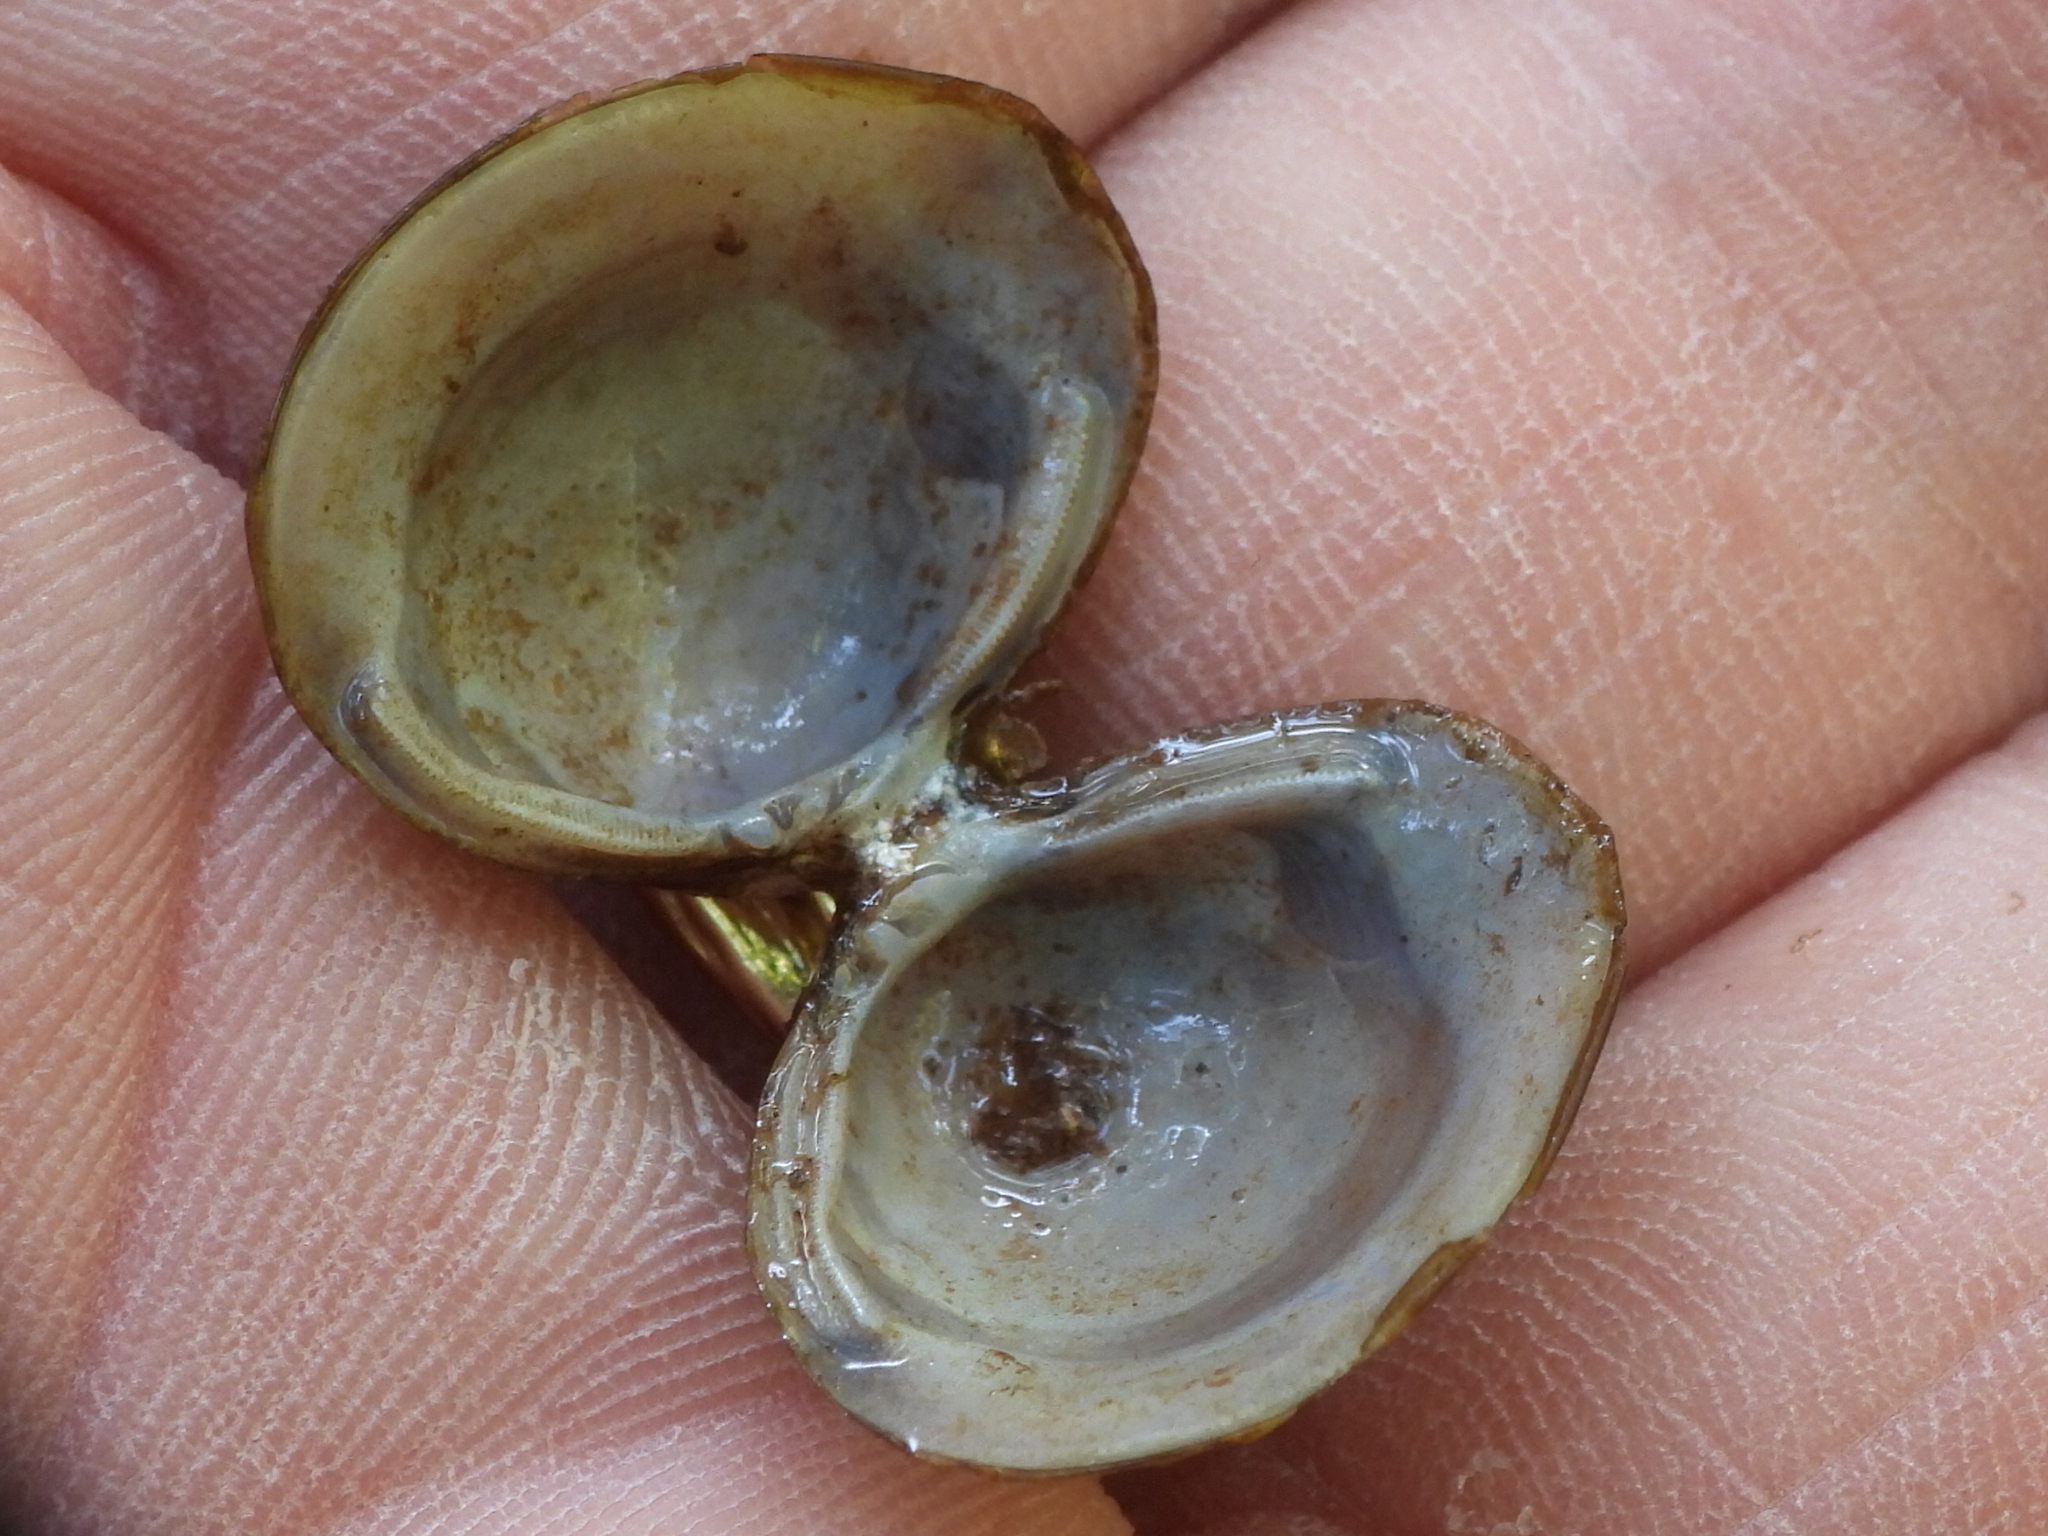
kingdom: Animalia
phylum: Mollusca
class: Bivalvia
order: Venerida
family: Cyrenidae
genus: Corbicula
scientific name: Corbicula fluminea
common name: Asian clam
